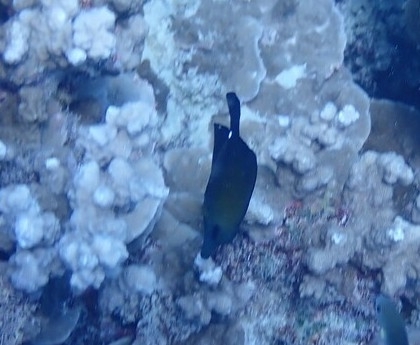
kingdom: Animalia
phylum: Chordata
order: Perciformes
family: Acanthuridae
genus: Zebrasoma
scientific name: Zebrasoma scopas
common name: Twotone tang
